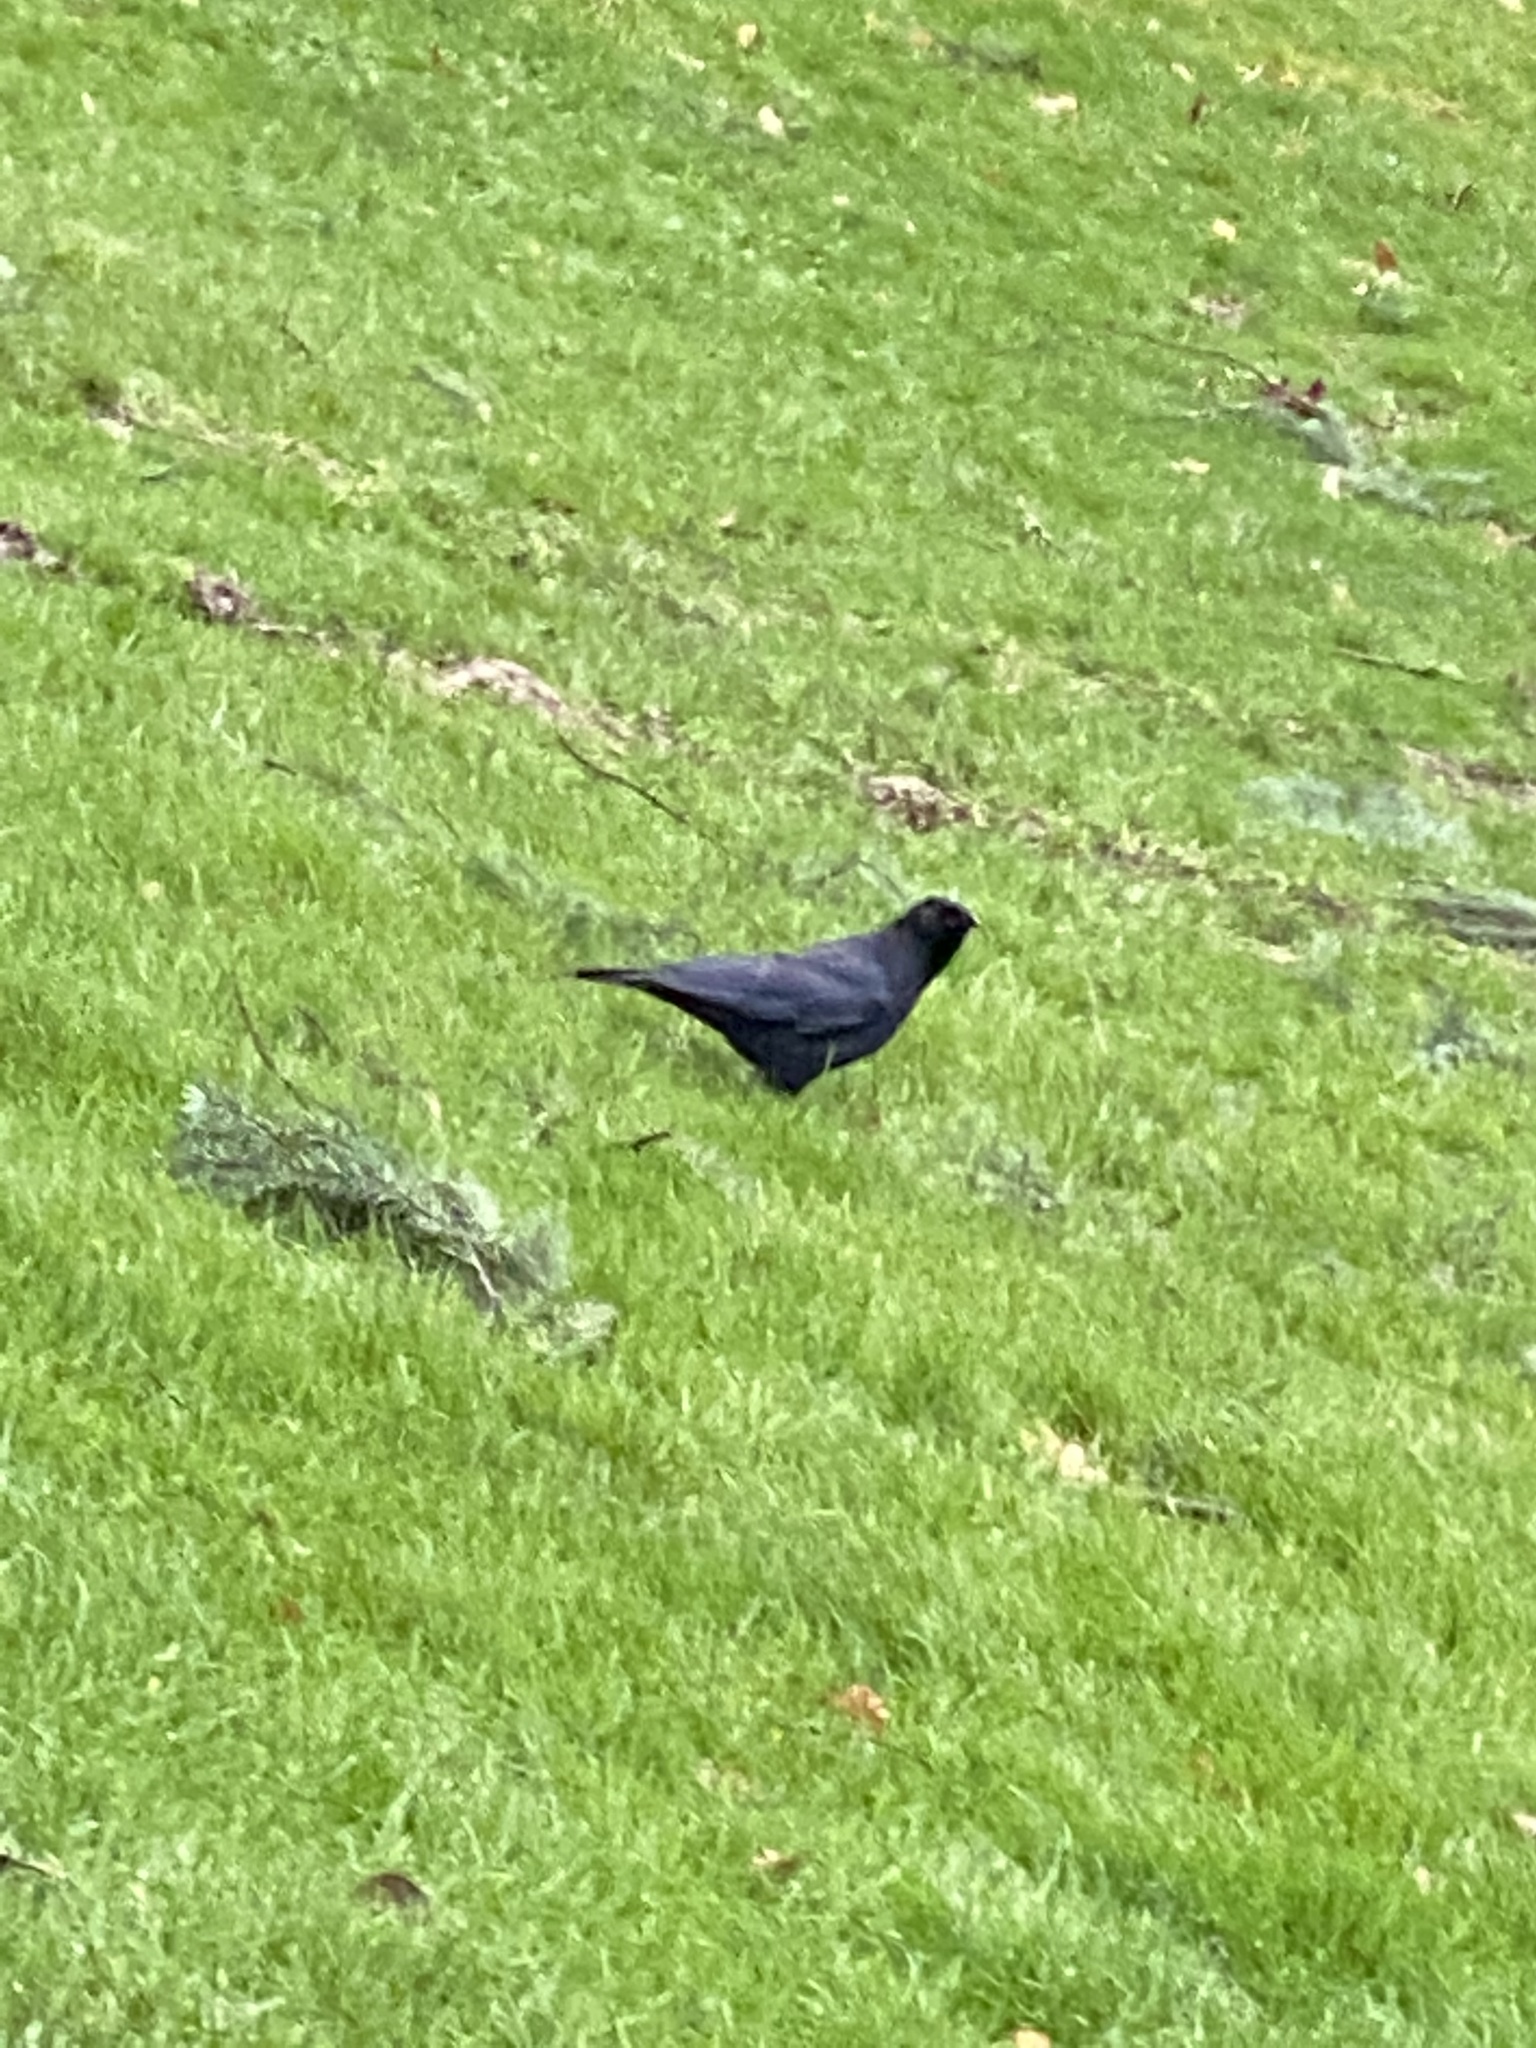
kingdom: Animalia
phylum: Chordata
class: Aves
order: Passeriformes
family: Corvidae
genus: Corvus
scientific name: Corvus brachyrhynchos
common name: American crow
